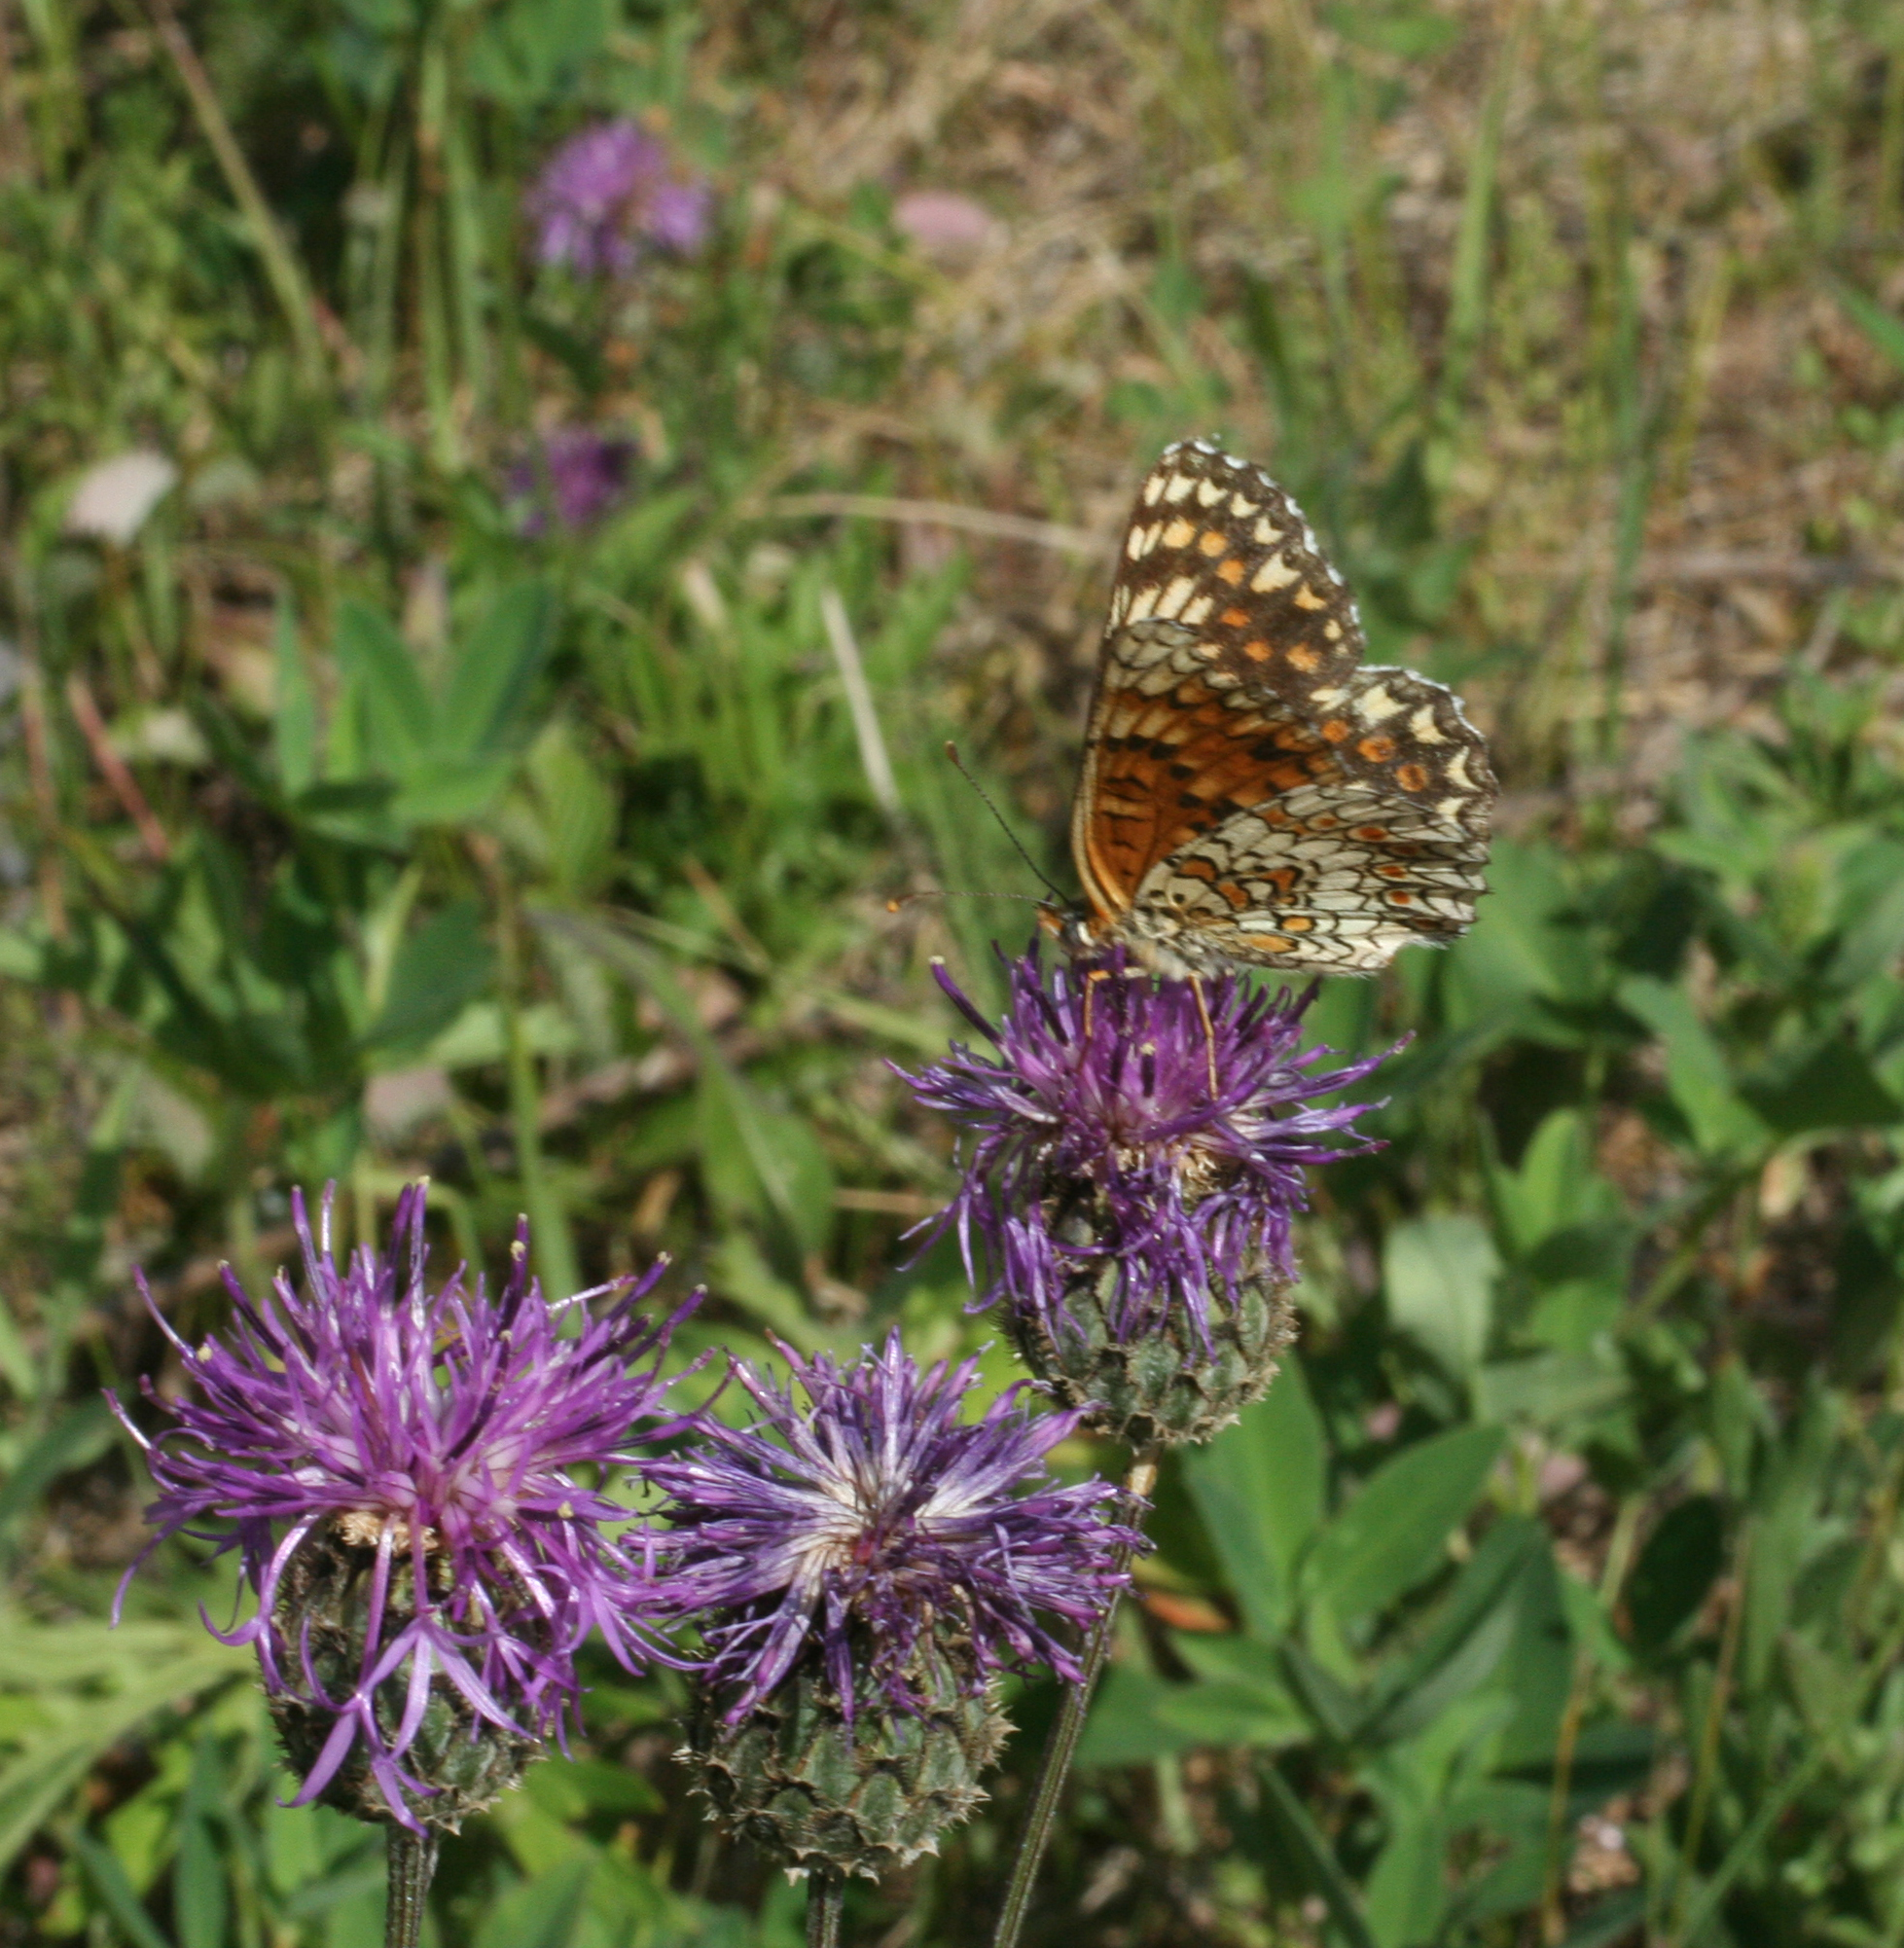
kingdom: Plantae
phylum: Tracheophyta
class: Magnoliopsida
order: Asterales
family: Asteraceae
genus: Centaurea
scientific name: Centaurea scabiosa
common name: Greater knapweed
